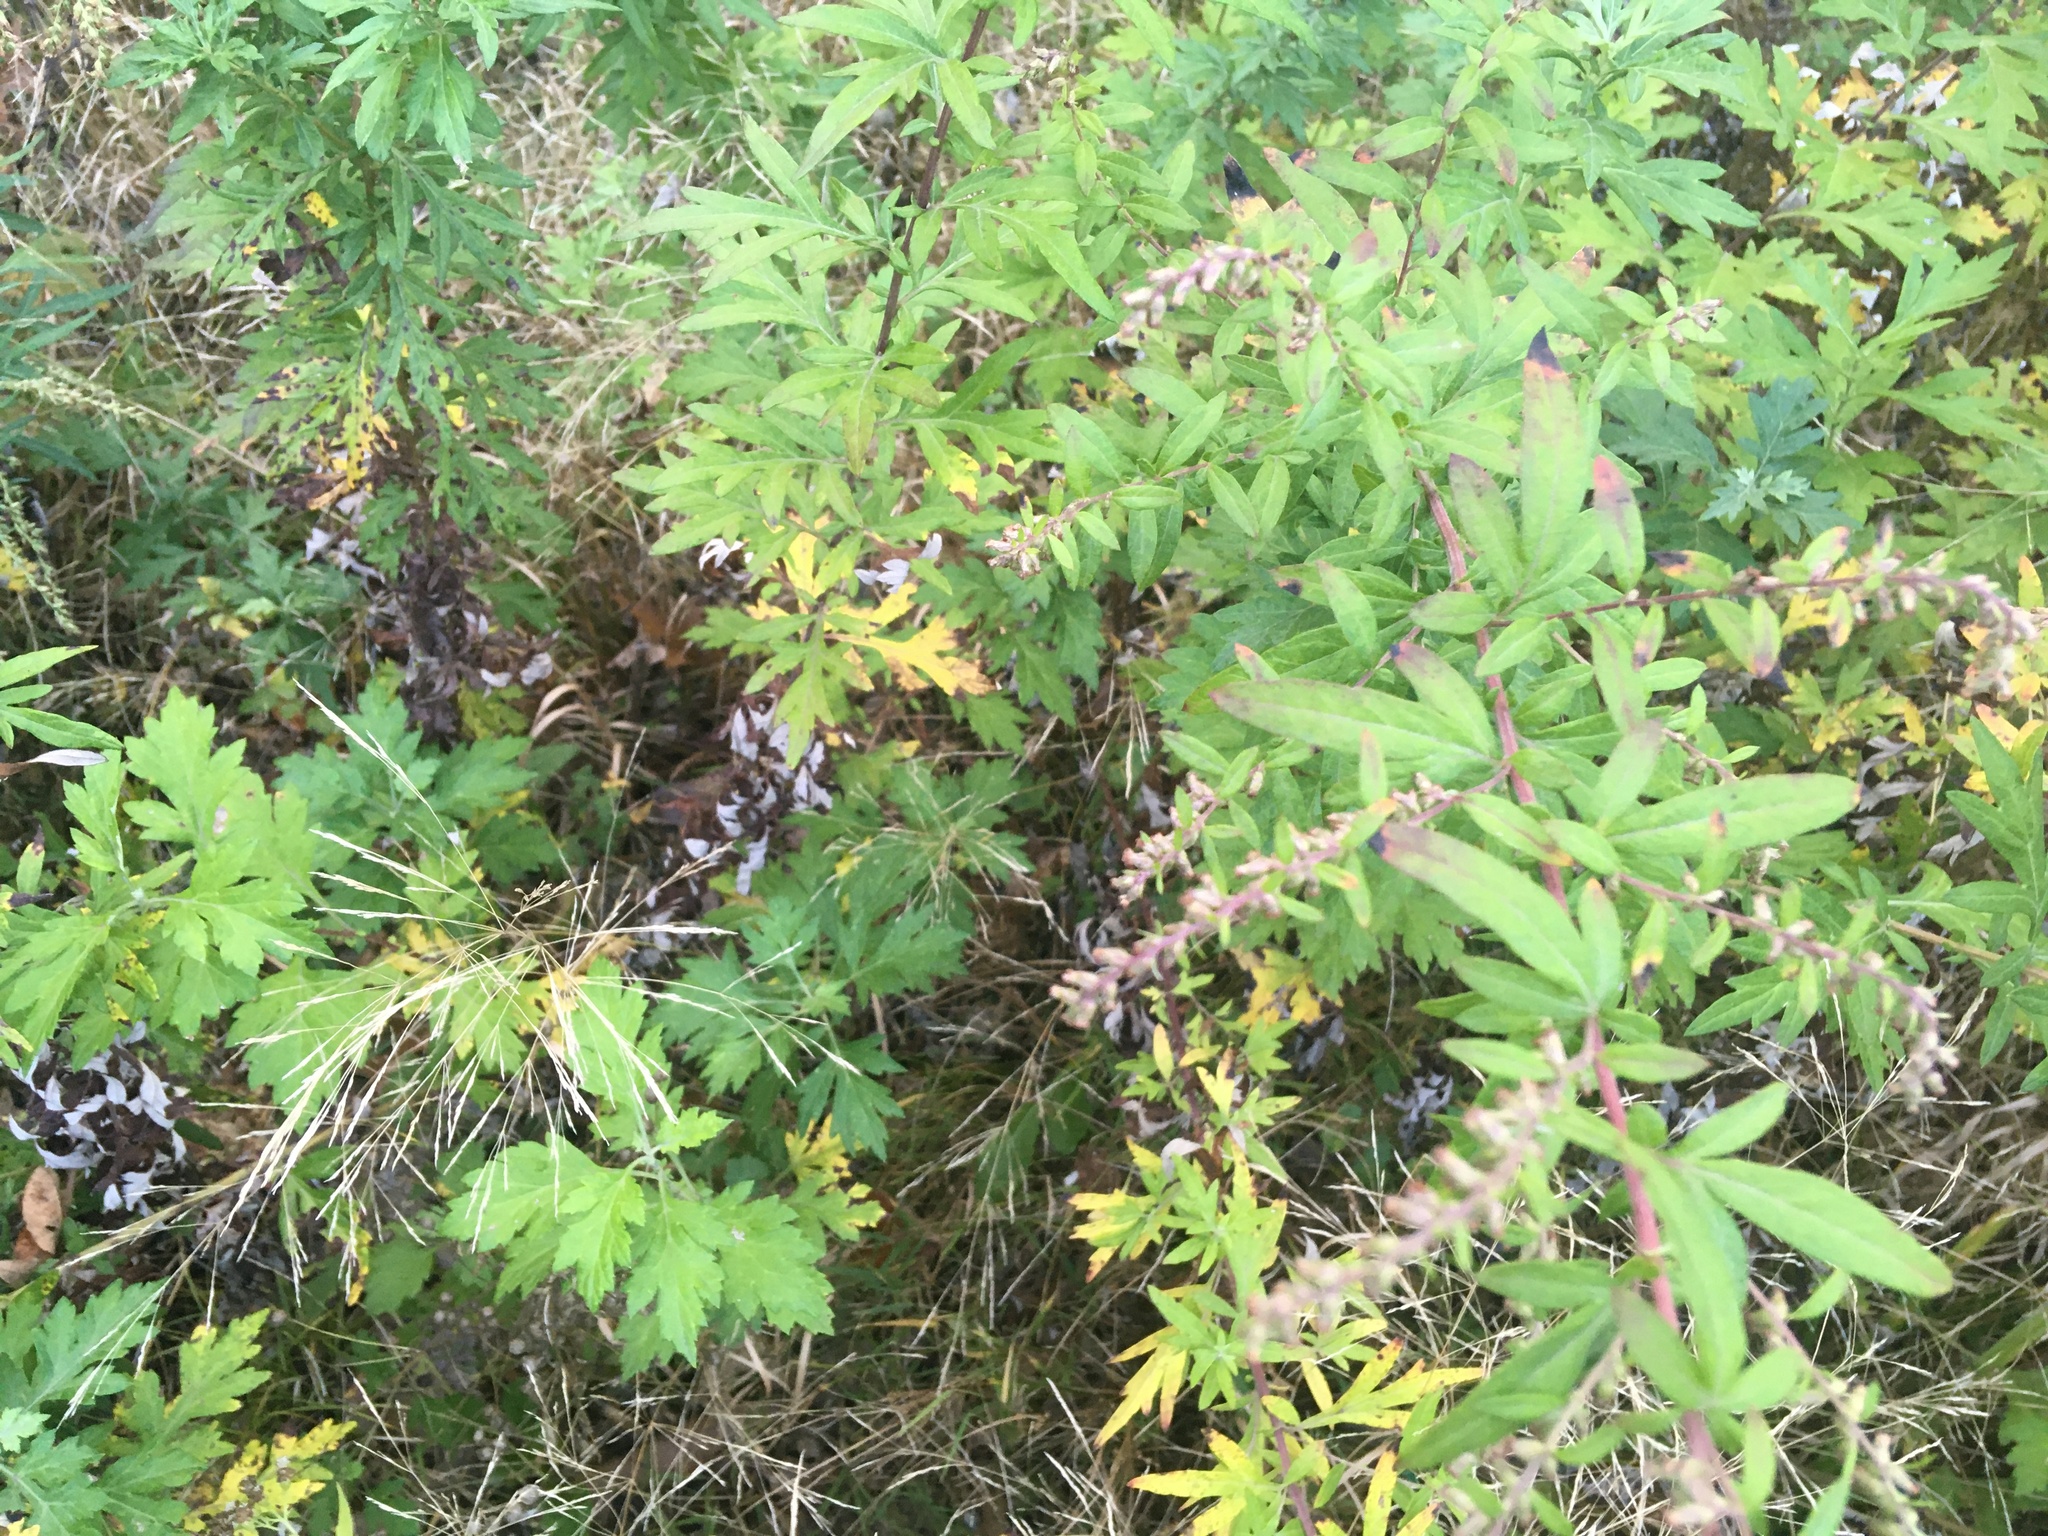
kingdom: Plantae
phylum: Tracheophyta
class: Magnoliopsida
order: Asterales
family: Asteraceae
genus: Artemisia
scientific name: Artemisia vulgaris
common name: Mugwort
